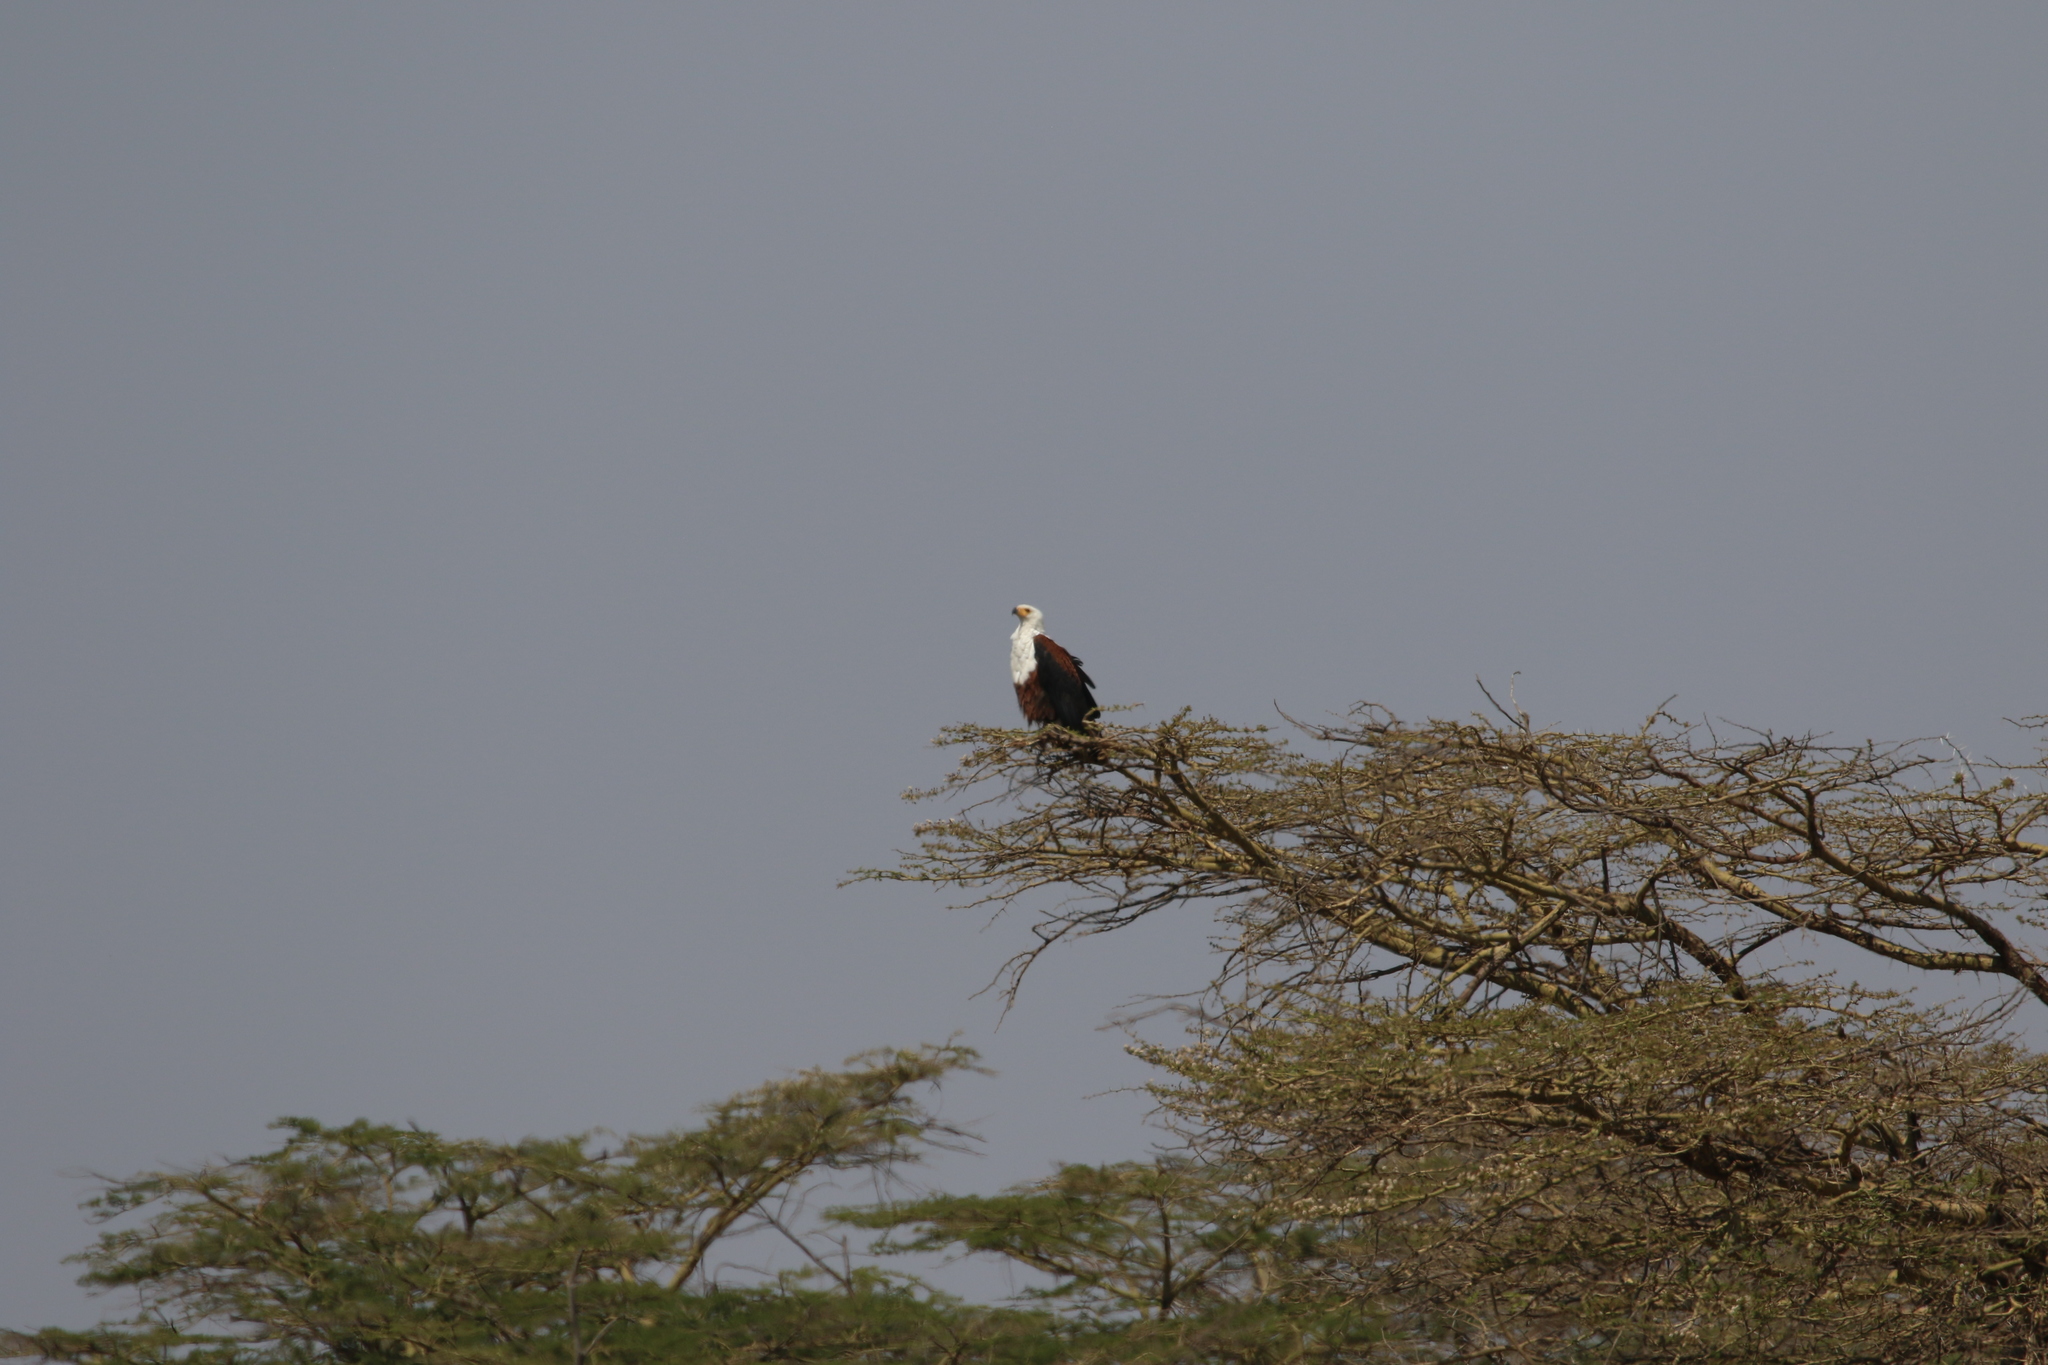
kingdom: Animalia
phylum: Chordata
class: Aves
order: Accipitriformes
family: Accipitridae
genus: Haliaeetus
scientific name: Haliaeetus vocifer
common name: African fish eagle
